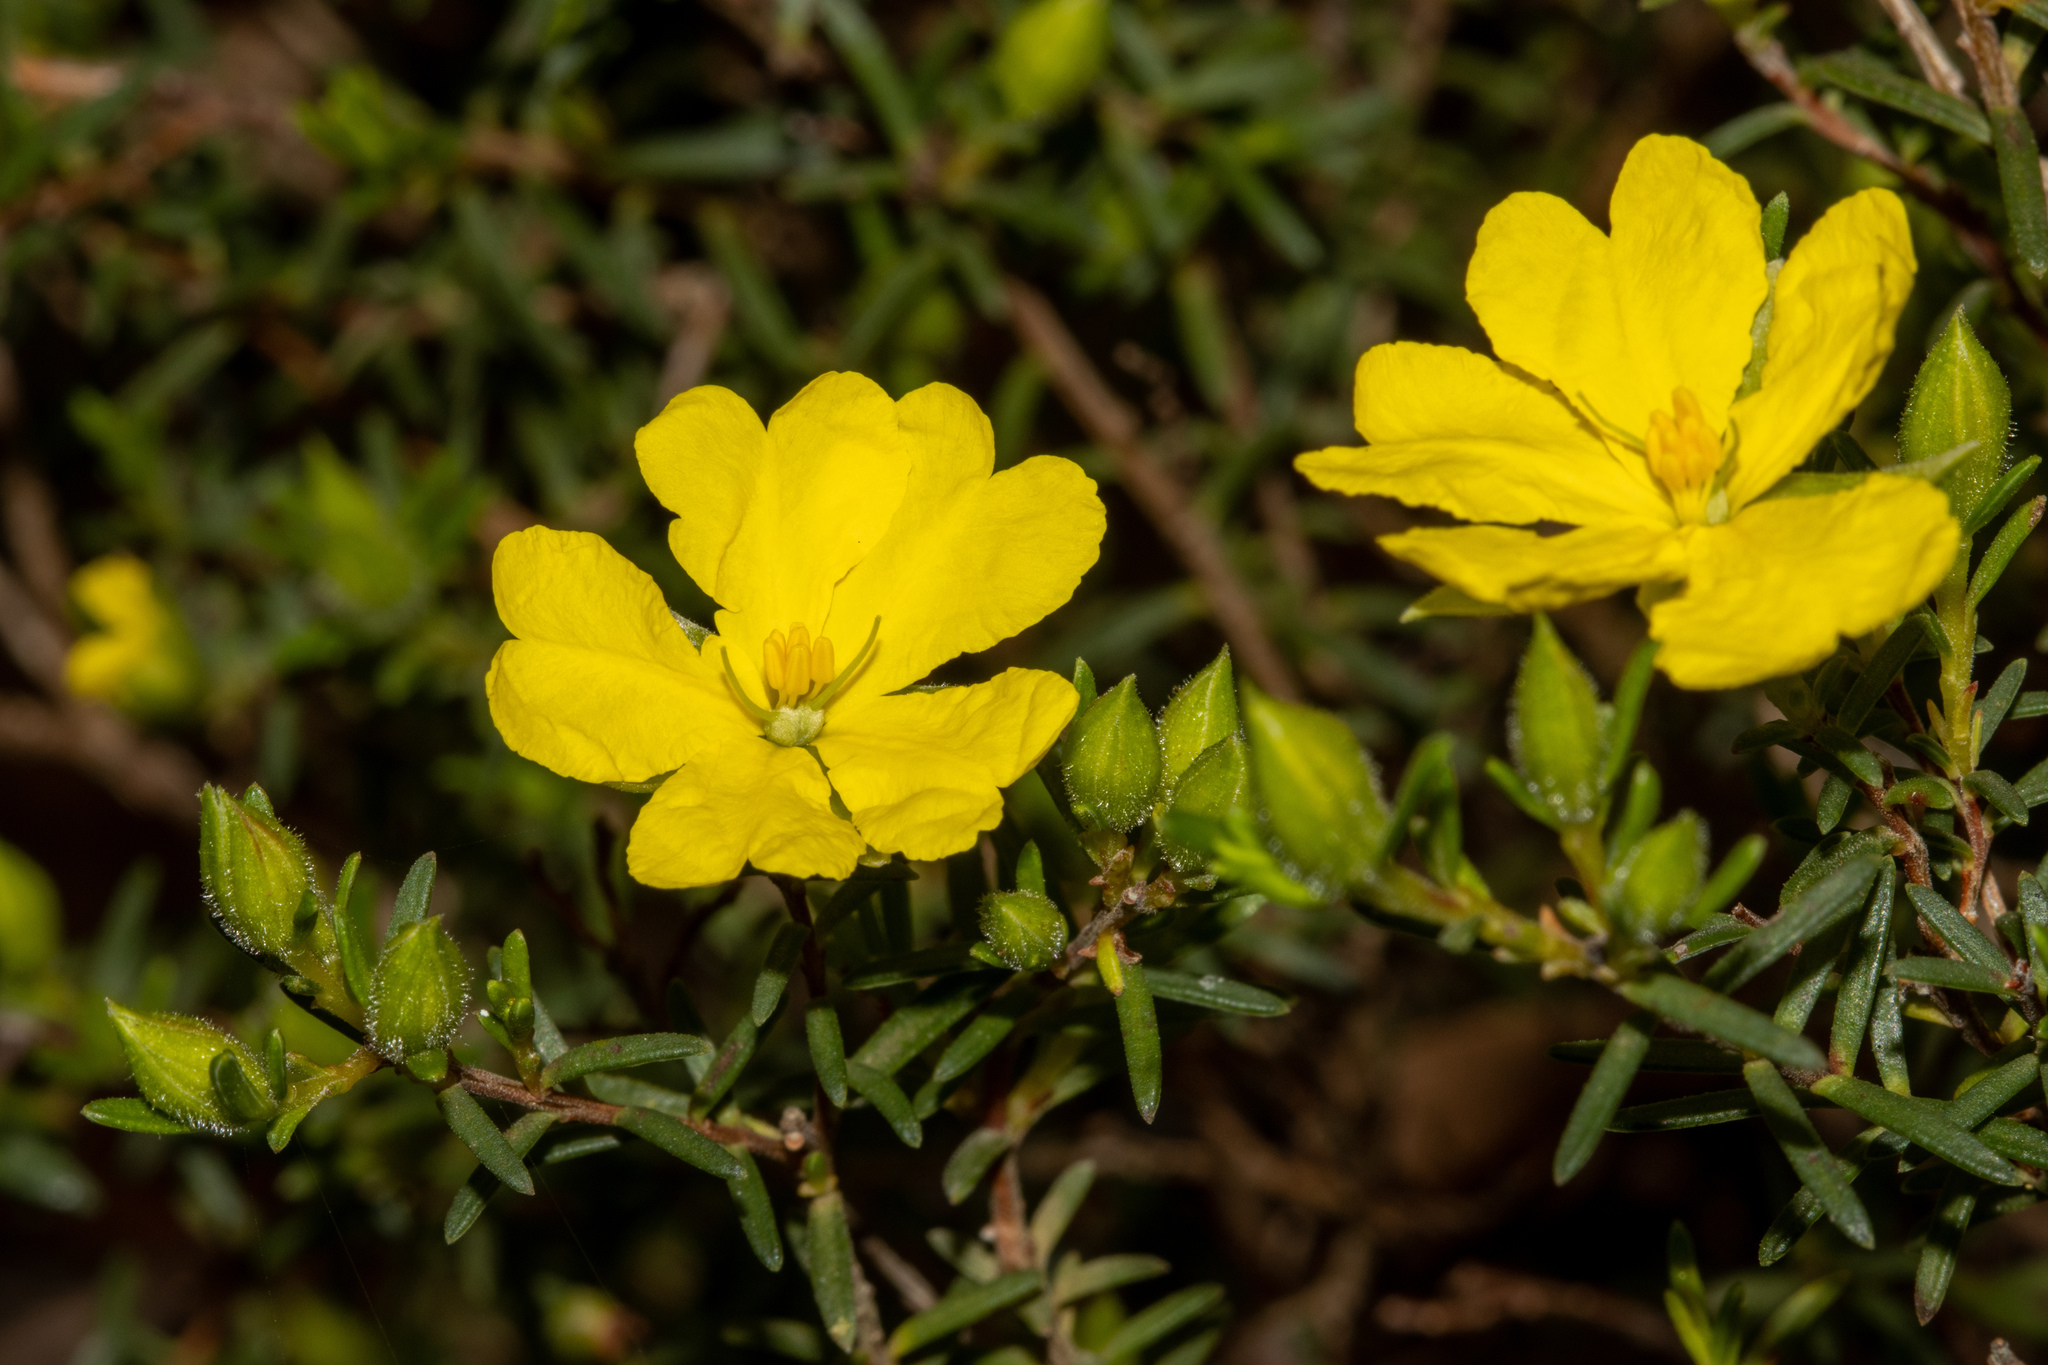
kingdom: Plantae
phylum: Tracheophyta
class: Magnoliopsida
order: Dilleniales
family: Dilleniaceae
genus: Hibbertia
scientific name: Hibbertia devitata
